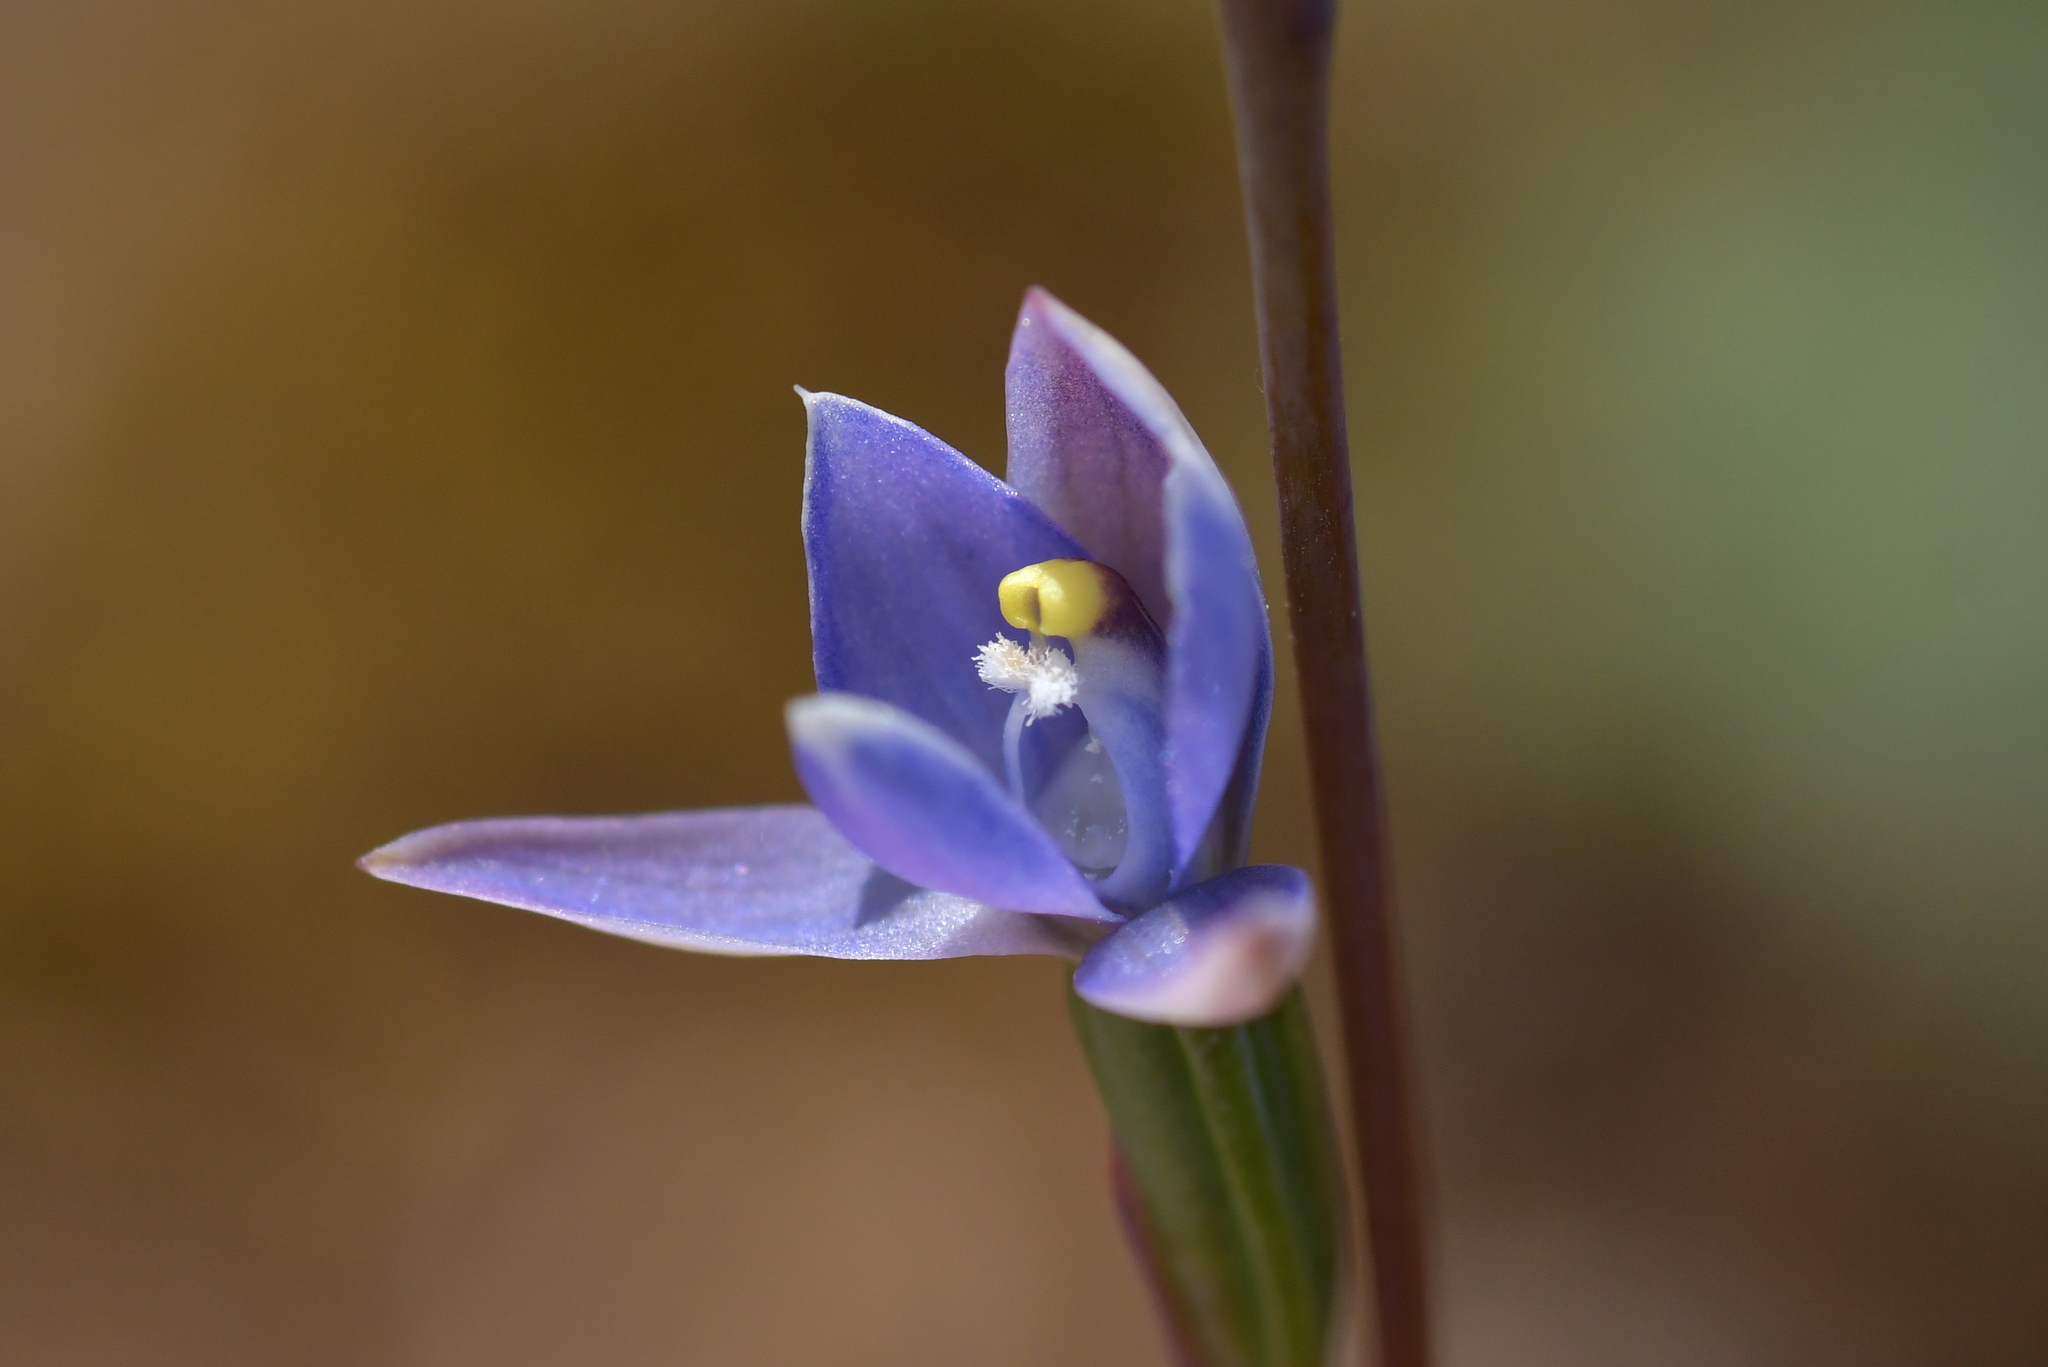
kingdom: Plantae
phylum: Tracheophyta
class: Liliopsida
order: Asparagales
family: Orchidaceae
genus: Thelymitra
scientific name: Thelymitra pauciflora
